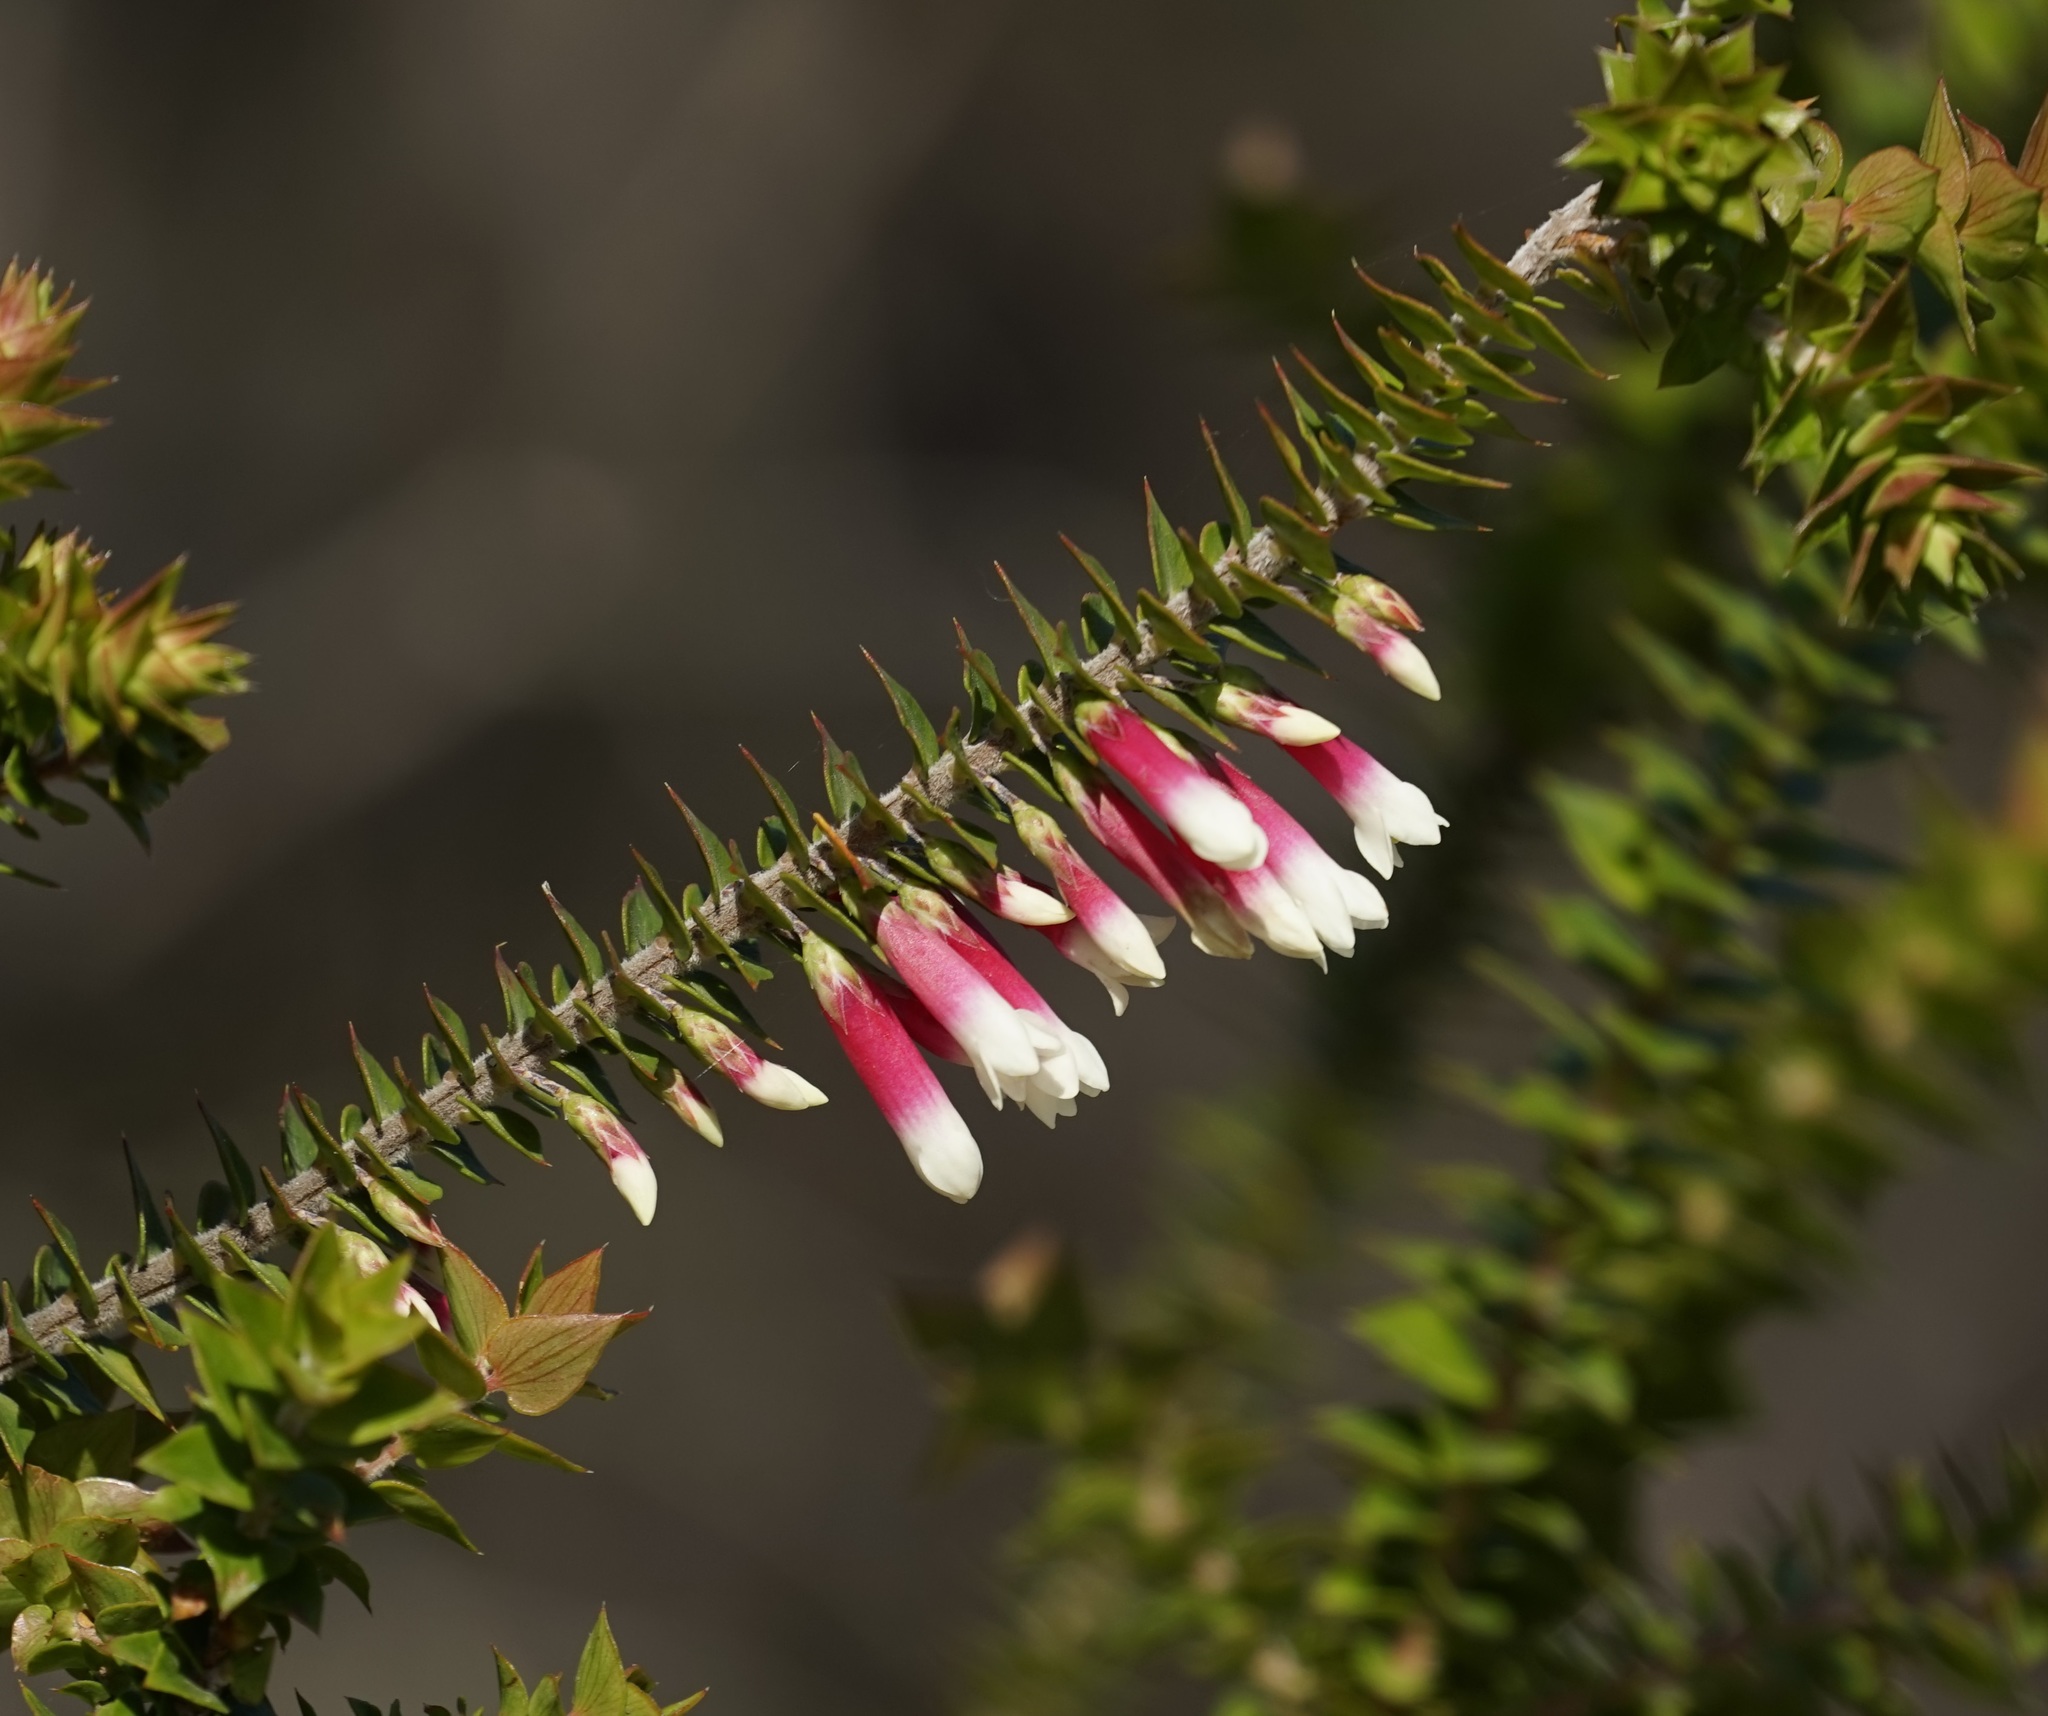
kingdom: Plantae
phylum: Tracheophyta
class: Magnoliopsida
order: Ericales
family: Ericaceae
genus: Epacris
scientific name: Epacris longiflora
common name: Fuchsia-heath
